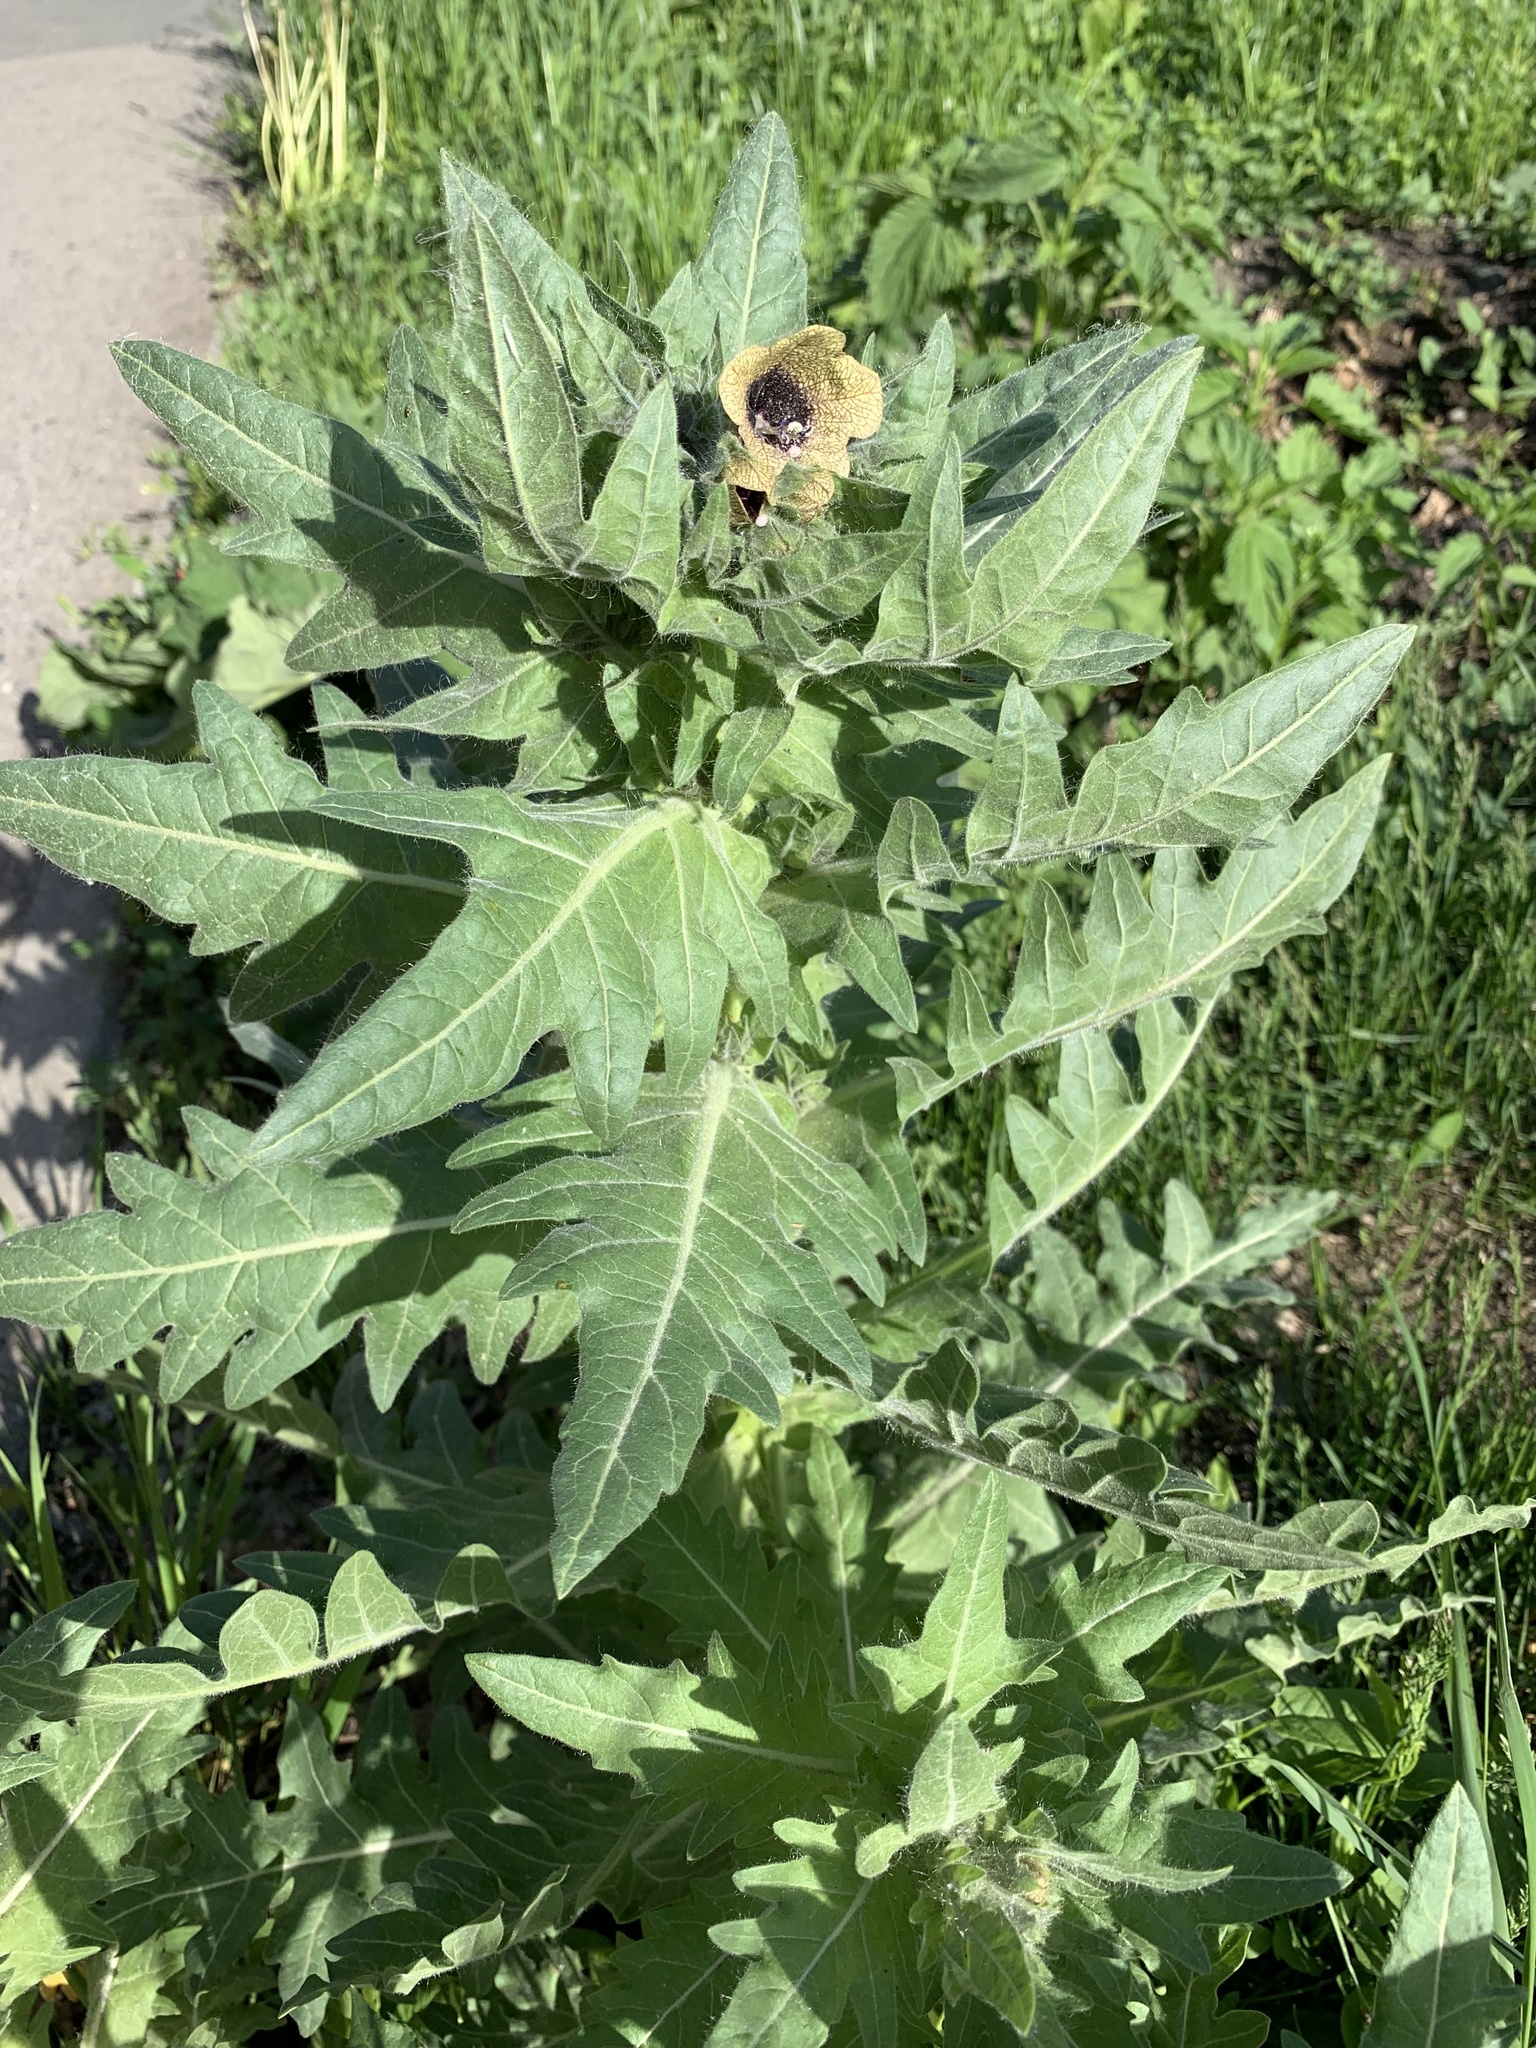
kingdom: Plantae
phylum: Tracheophyta
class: Magnoliopsida
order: Solanales
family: Solanaceae
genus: Hyoscyamus
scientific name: Hyoscyamus niger
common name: Henbane
